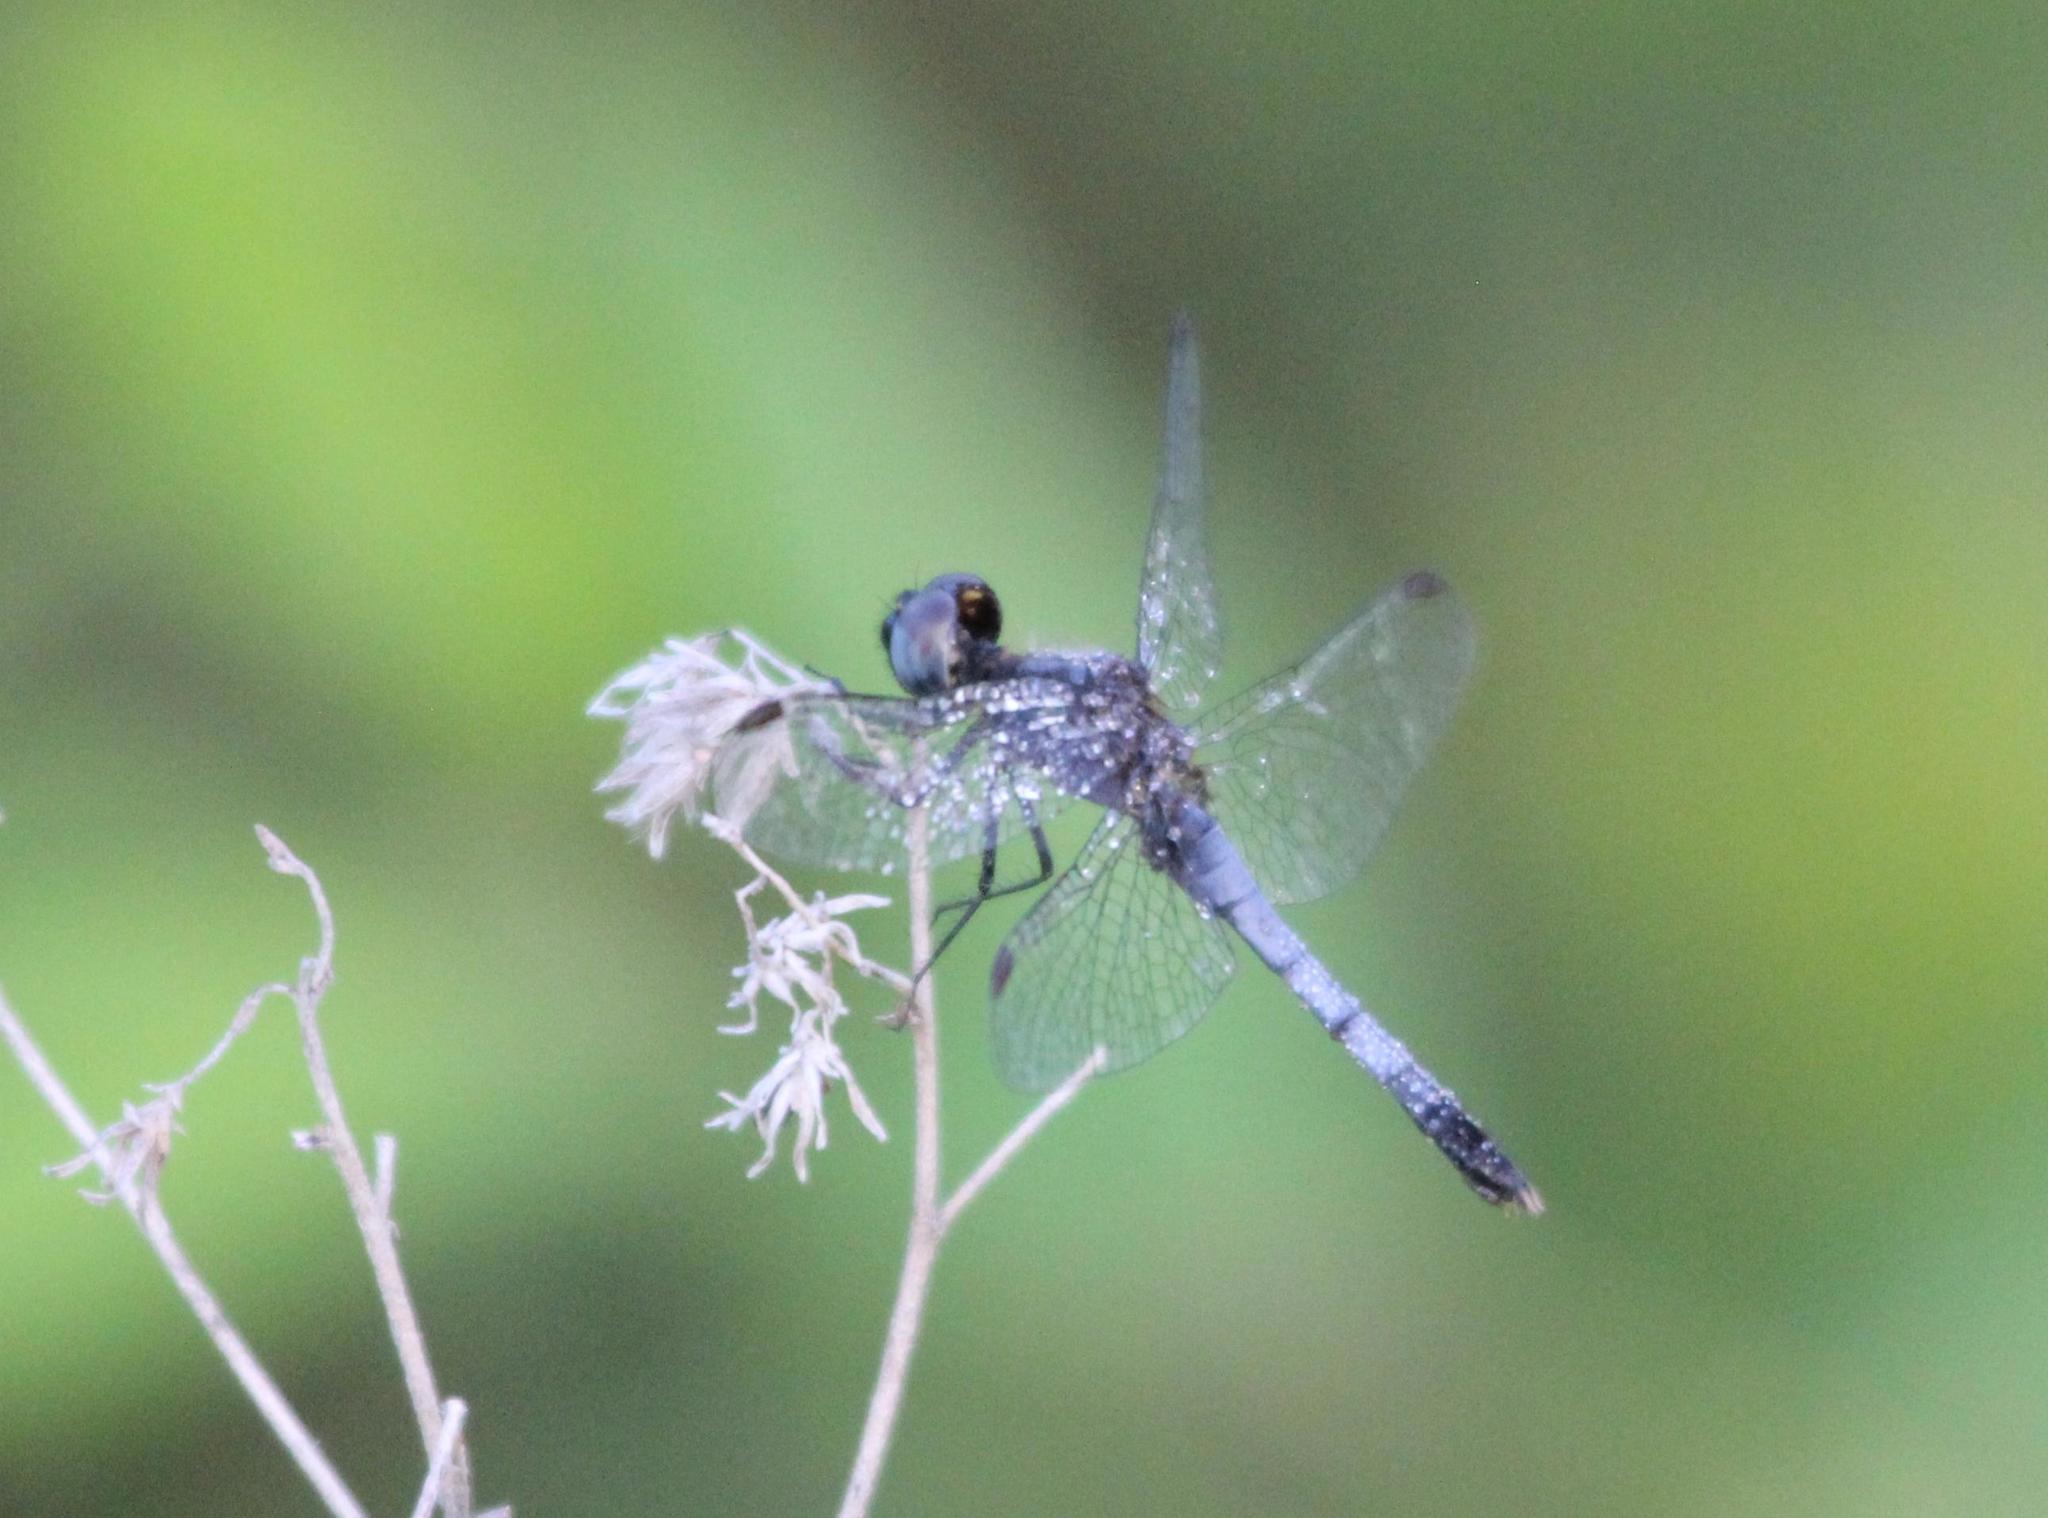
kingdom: Animalia
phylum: Arthropoda
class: Insecta
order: Odonata
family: Libellulidae
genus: Erythrodiplax
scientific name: Erythrodiplax minuscula
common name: Little blue dragonlet
